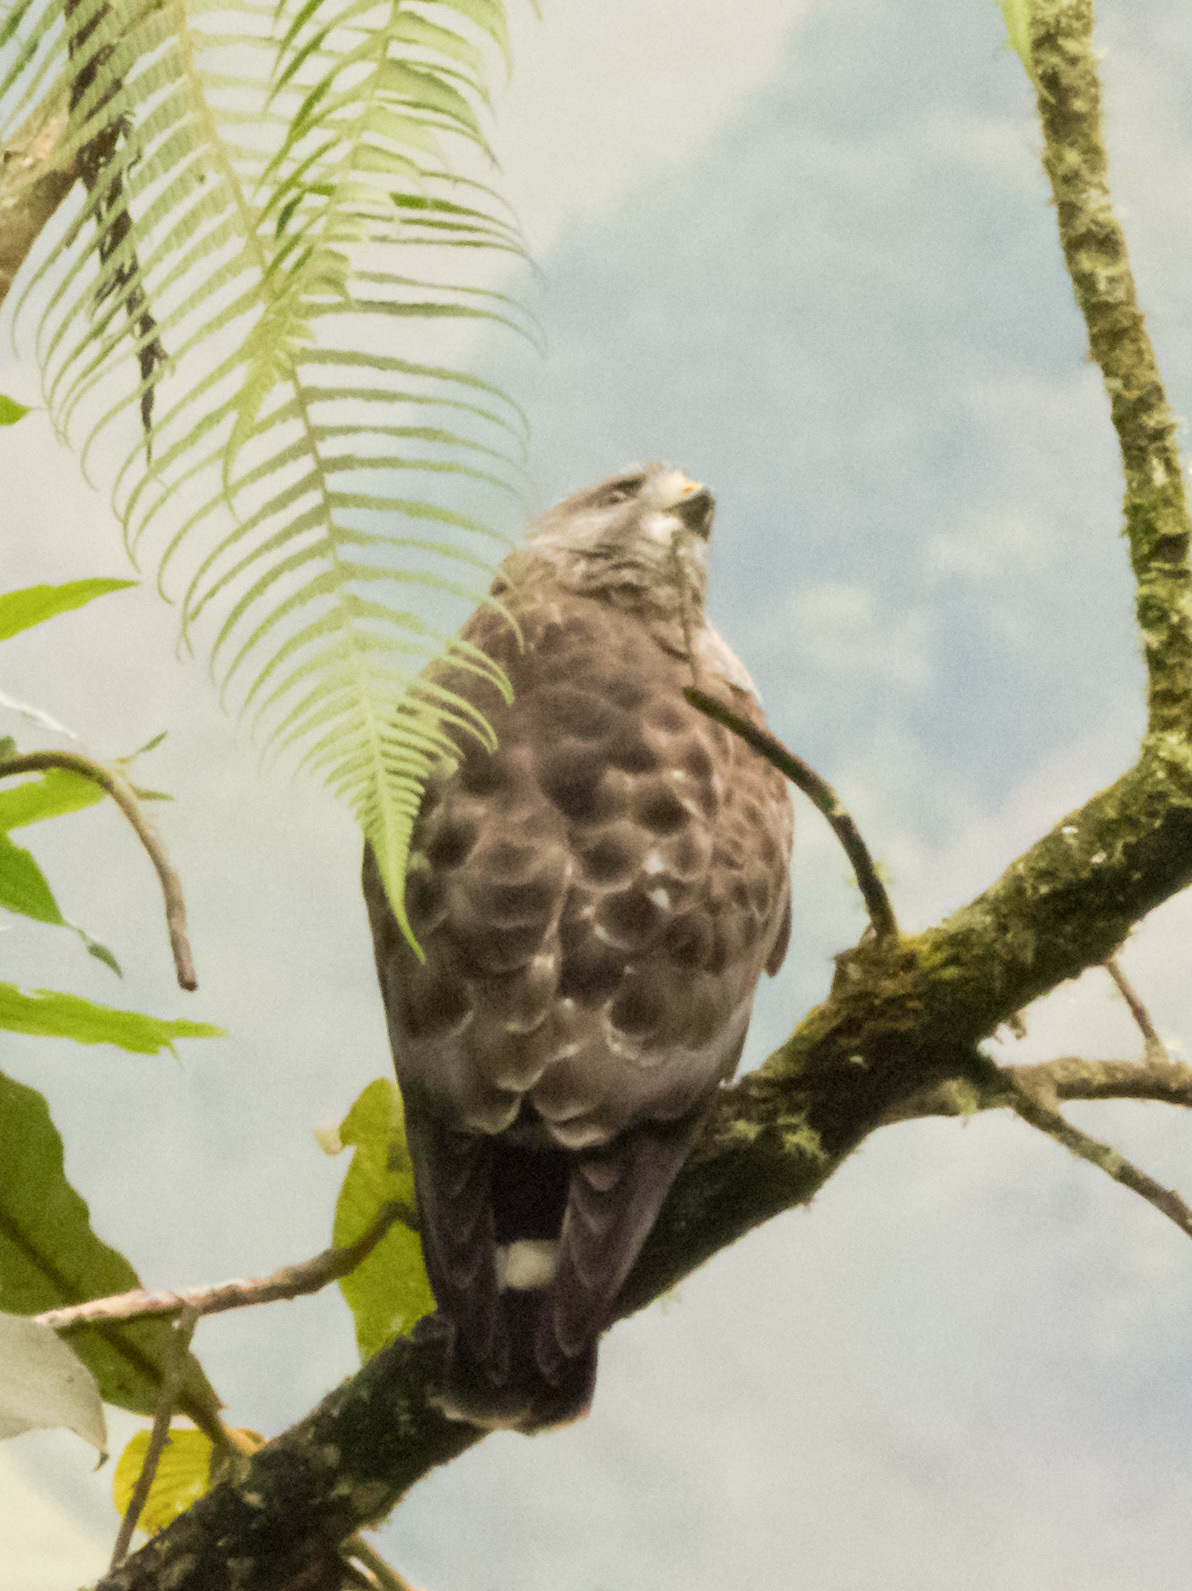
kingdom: Animalia
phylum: Chordata
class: Aves
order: Accipitriformes
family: Accipitridae
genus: Buteo
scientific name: Buteo platypterus
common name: Broad-winged hawk
